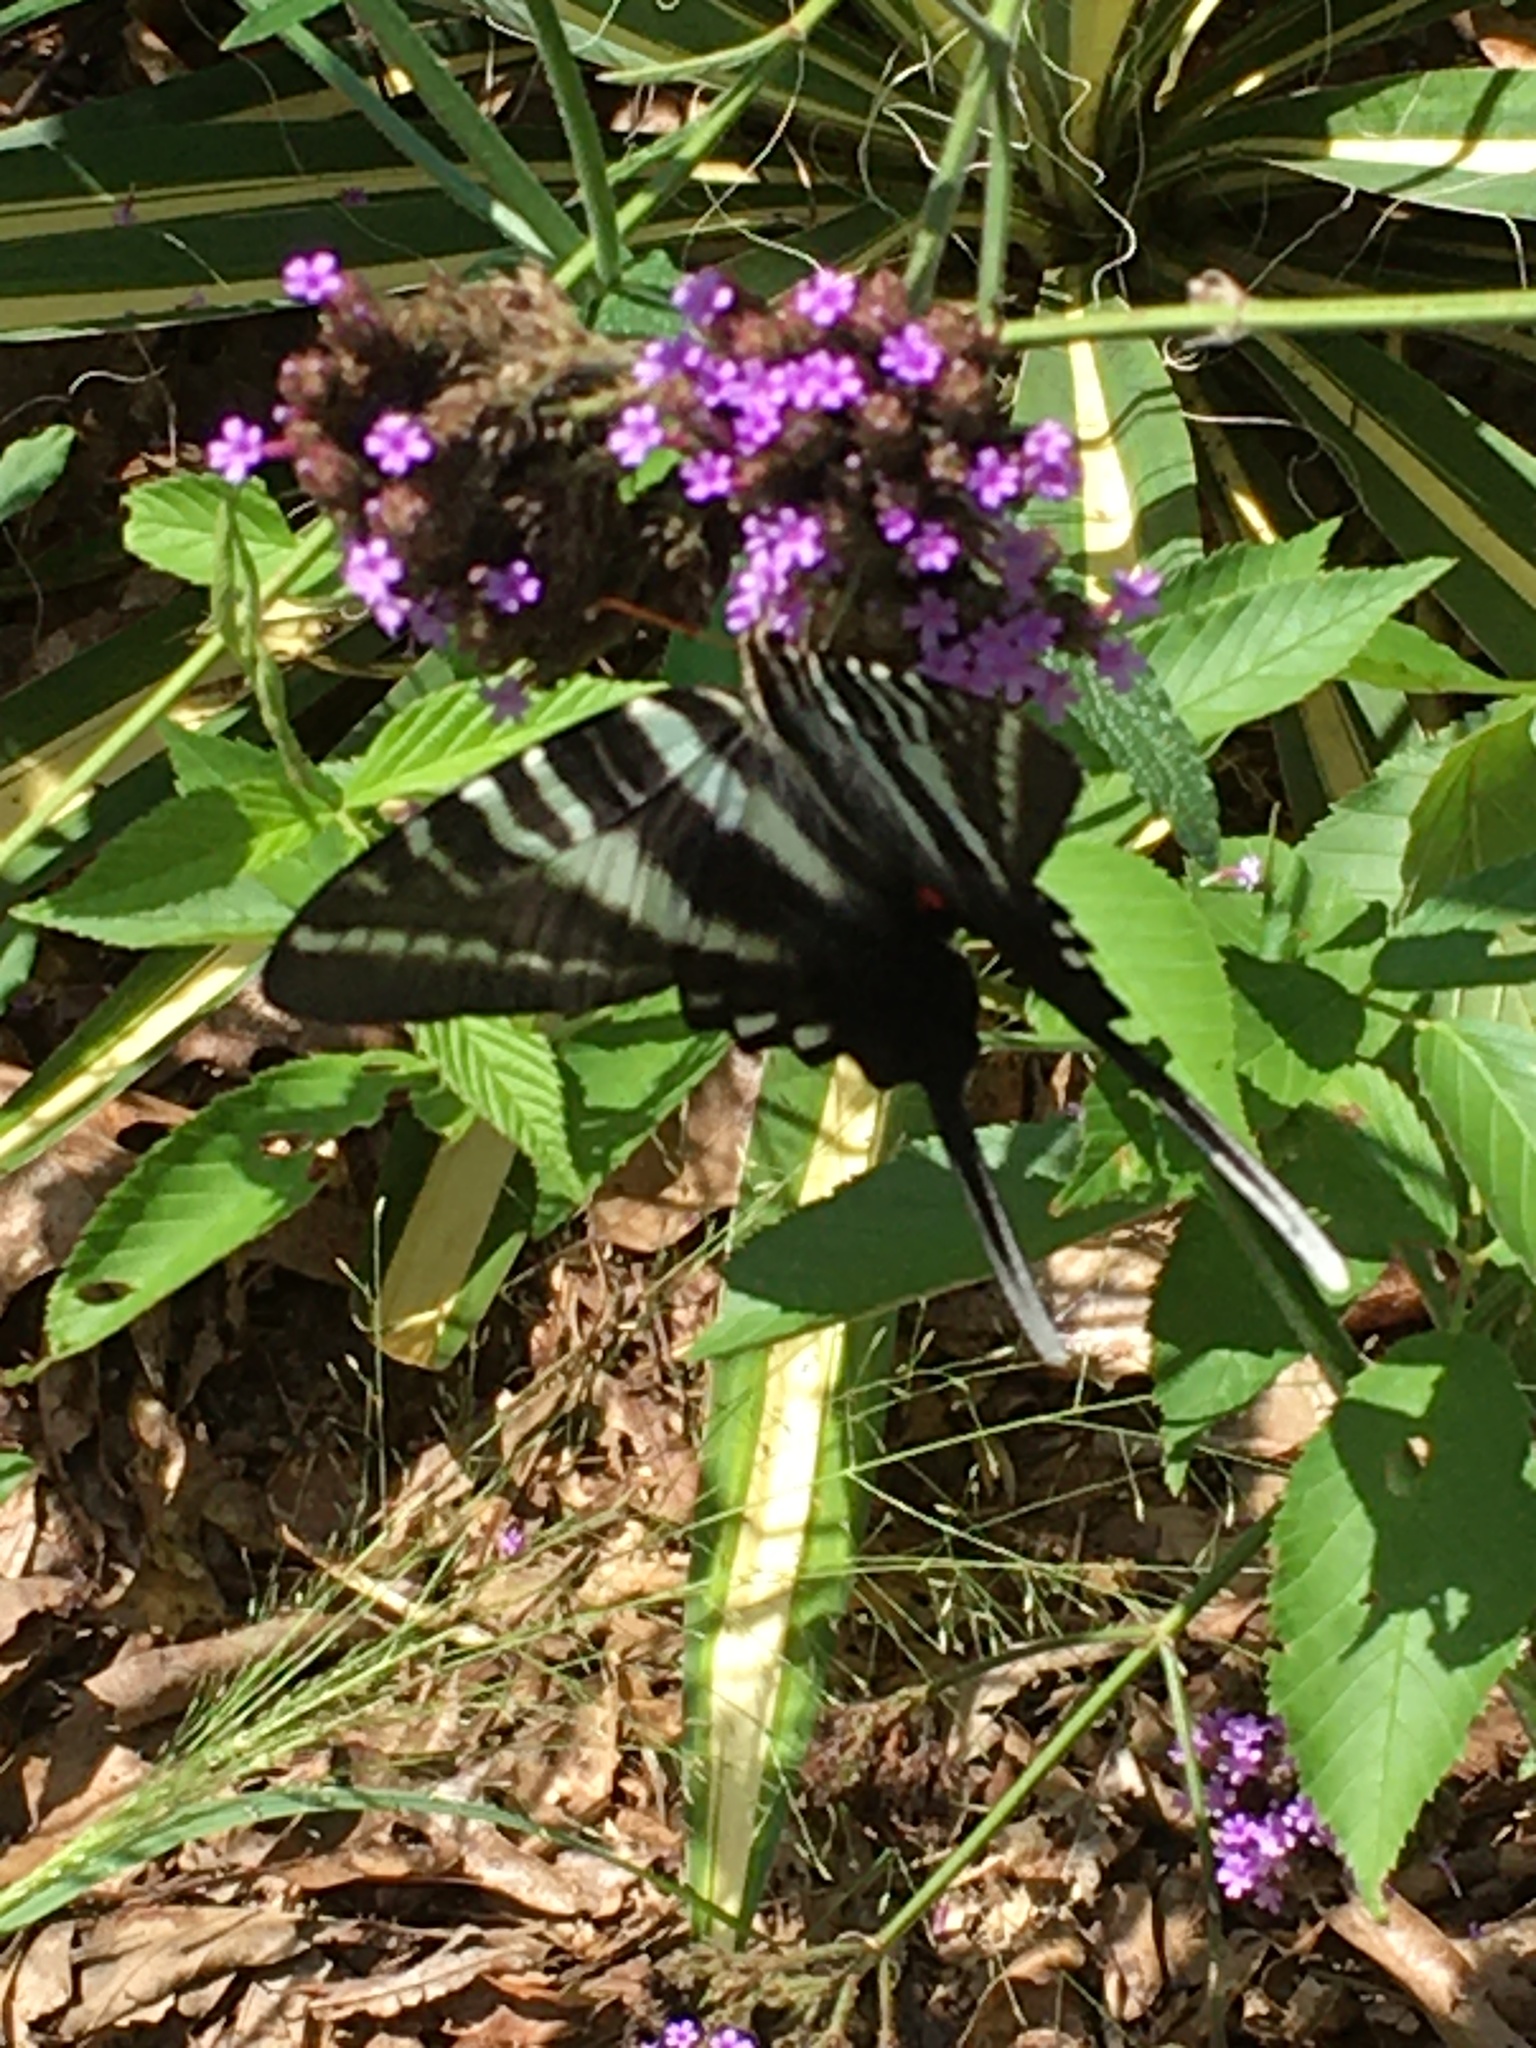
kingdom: Animalia
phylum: Arthropoda
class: Insecta
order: Lepidoptera
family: Papilionidae
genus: Protographium
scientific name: Protographium marcellus
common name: Zebra swallowtail
